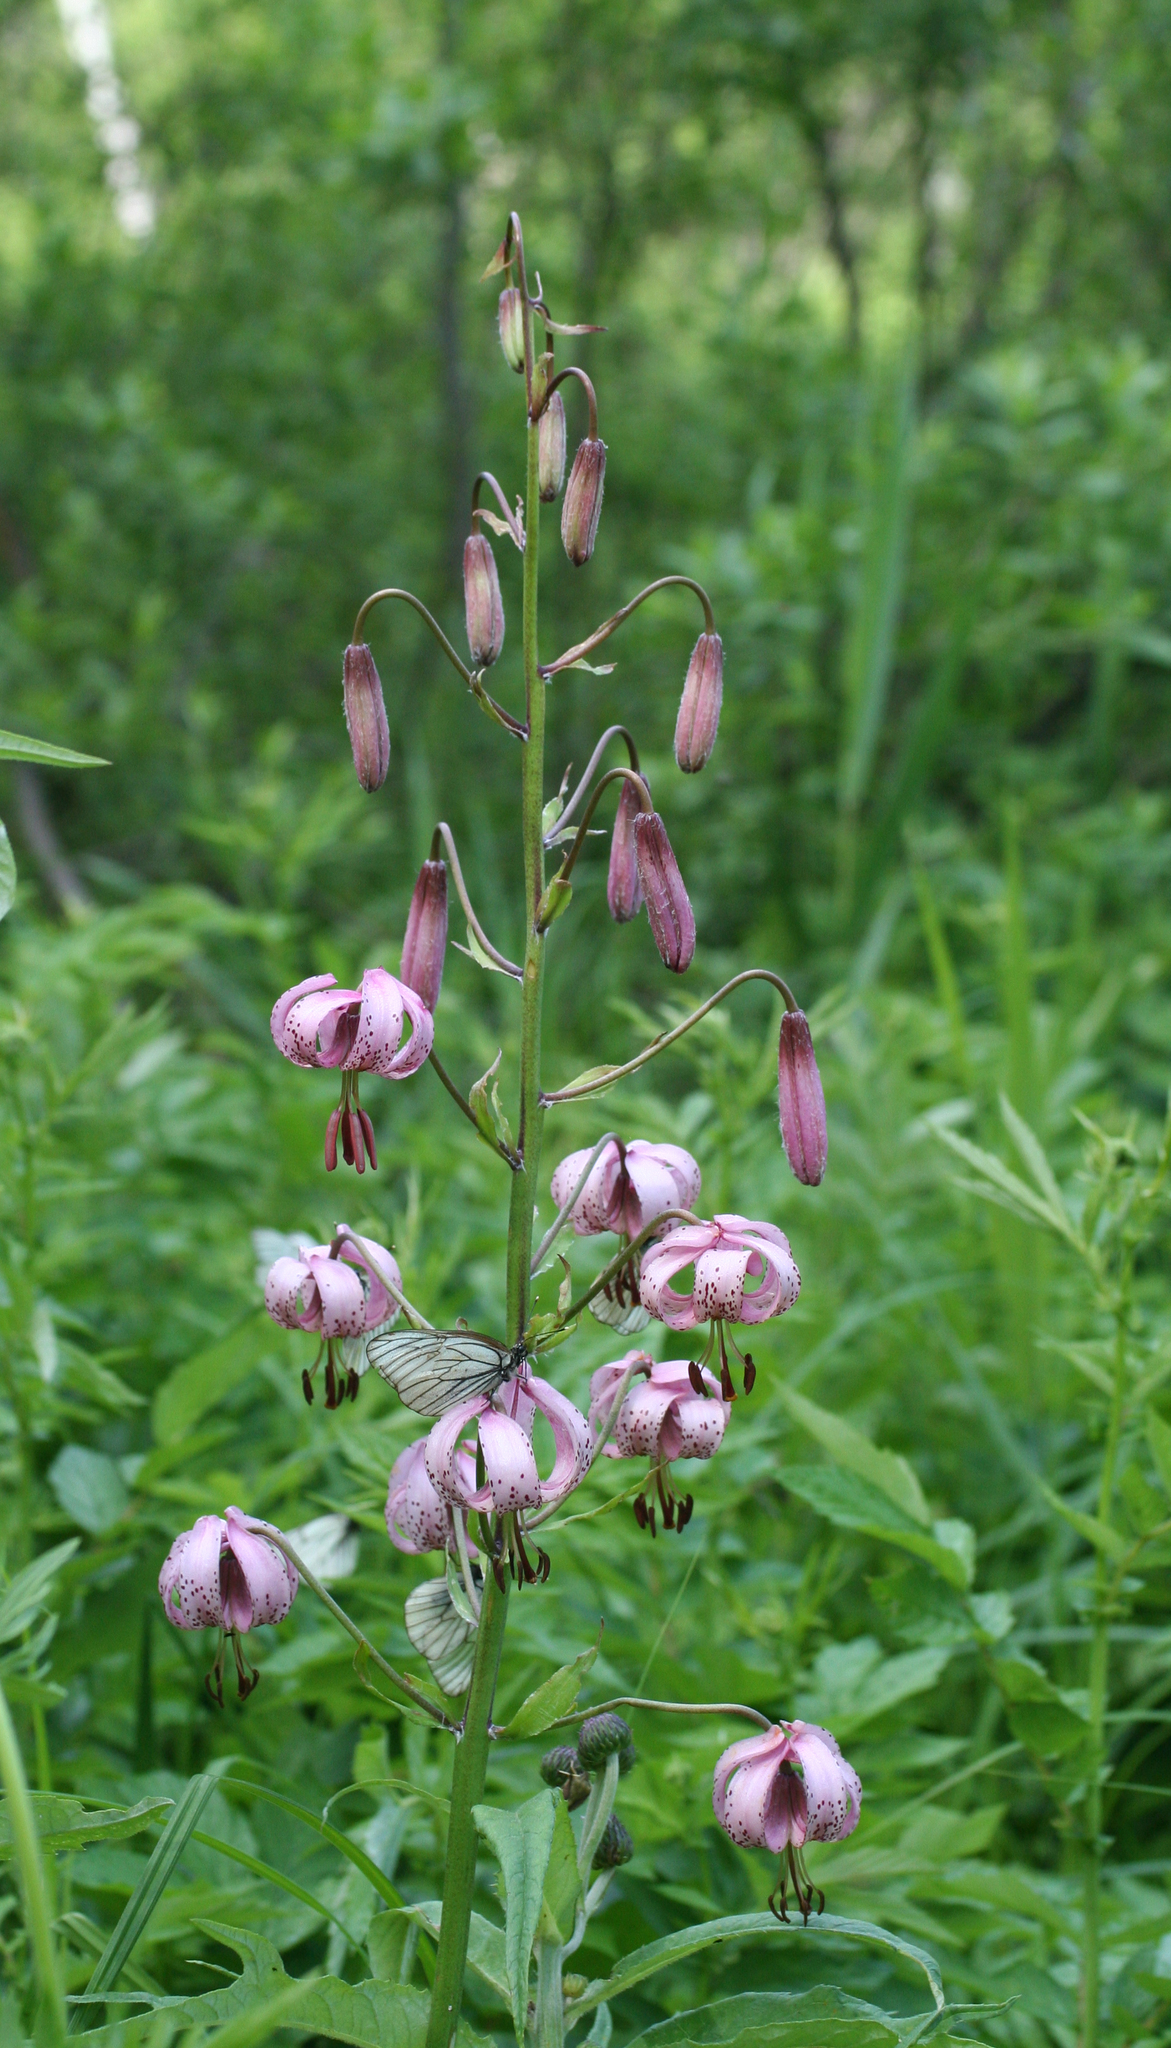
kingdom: Plantae
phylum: Tracheophyta
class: Liliopsida
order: Liliales
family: Liliaceae
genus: Lilium
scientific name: Lilium martagon
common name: Martagon lily
